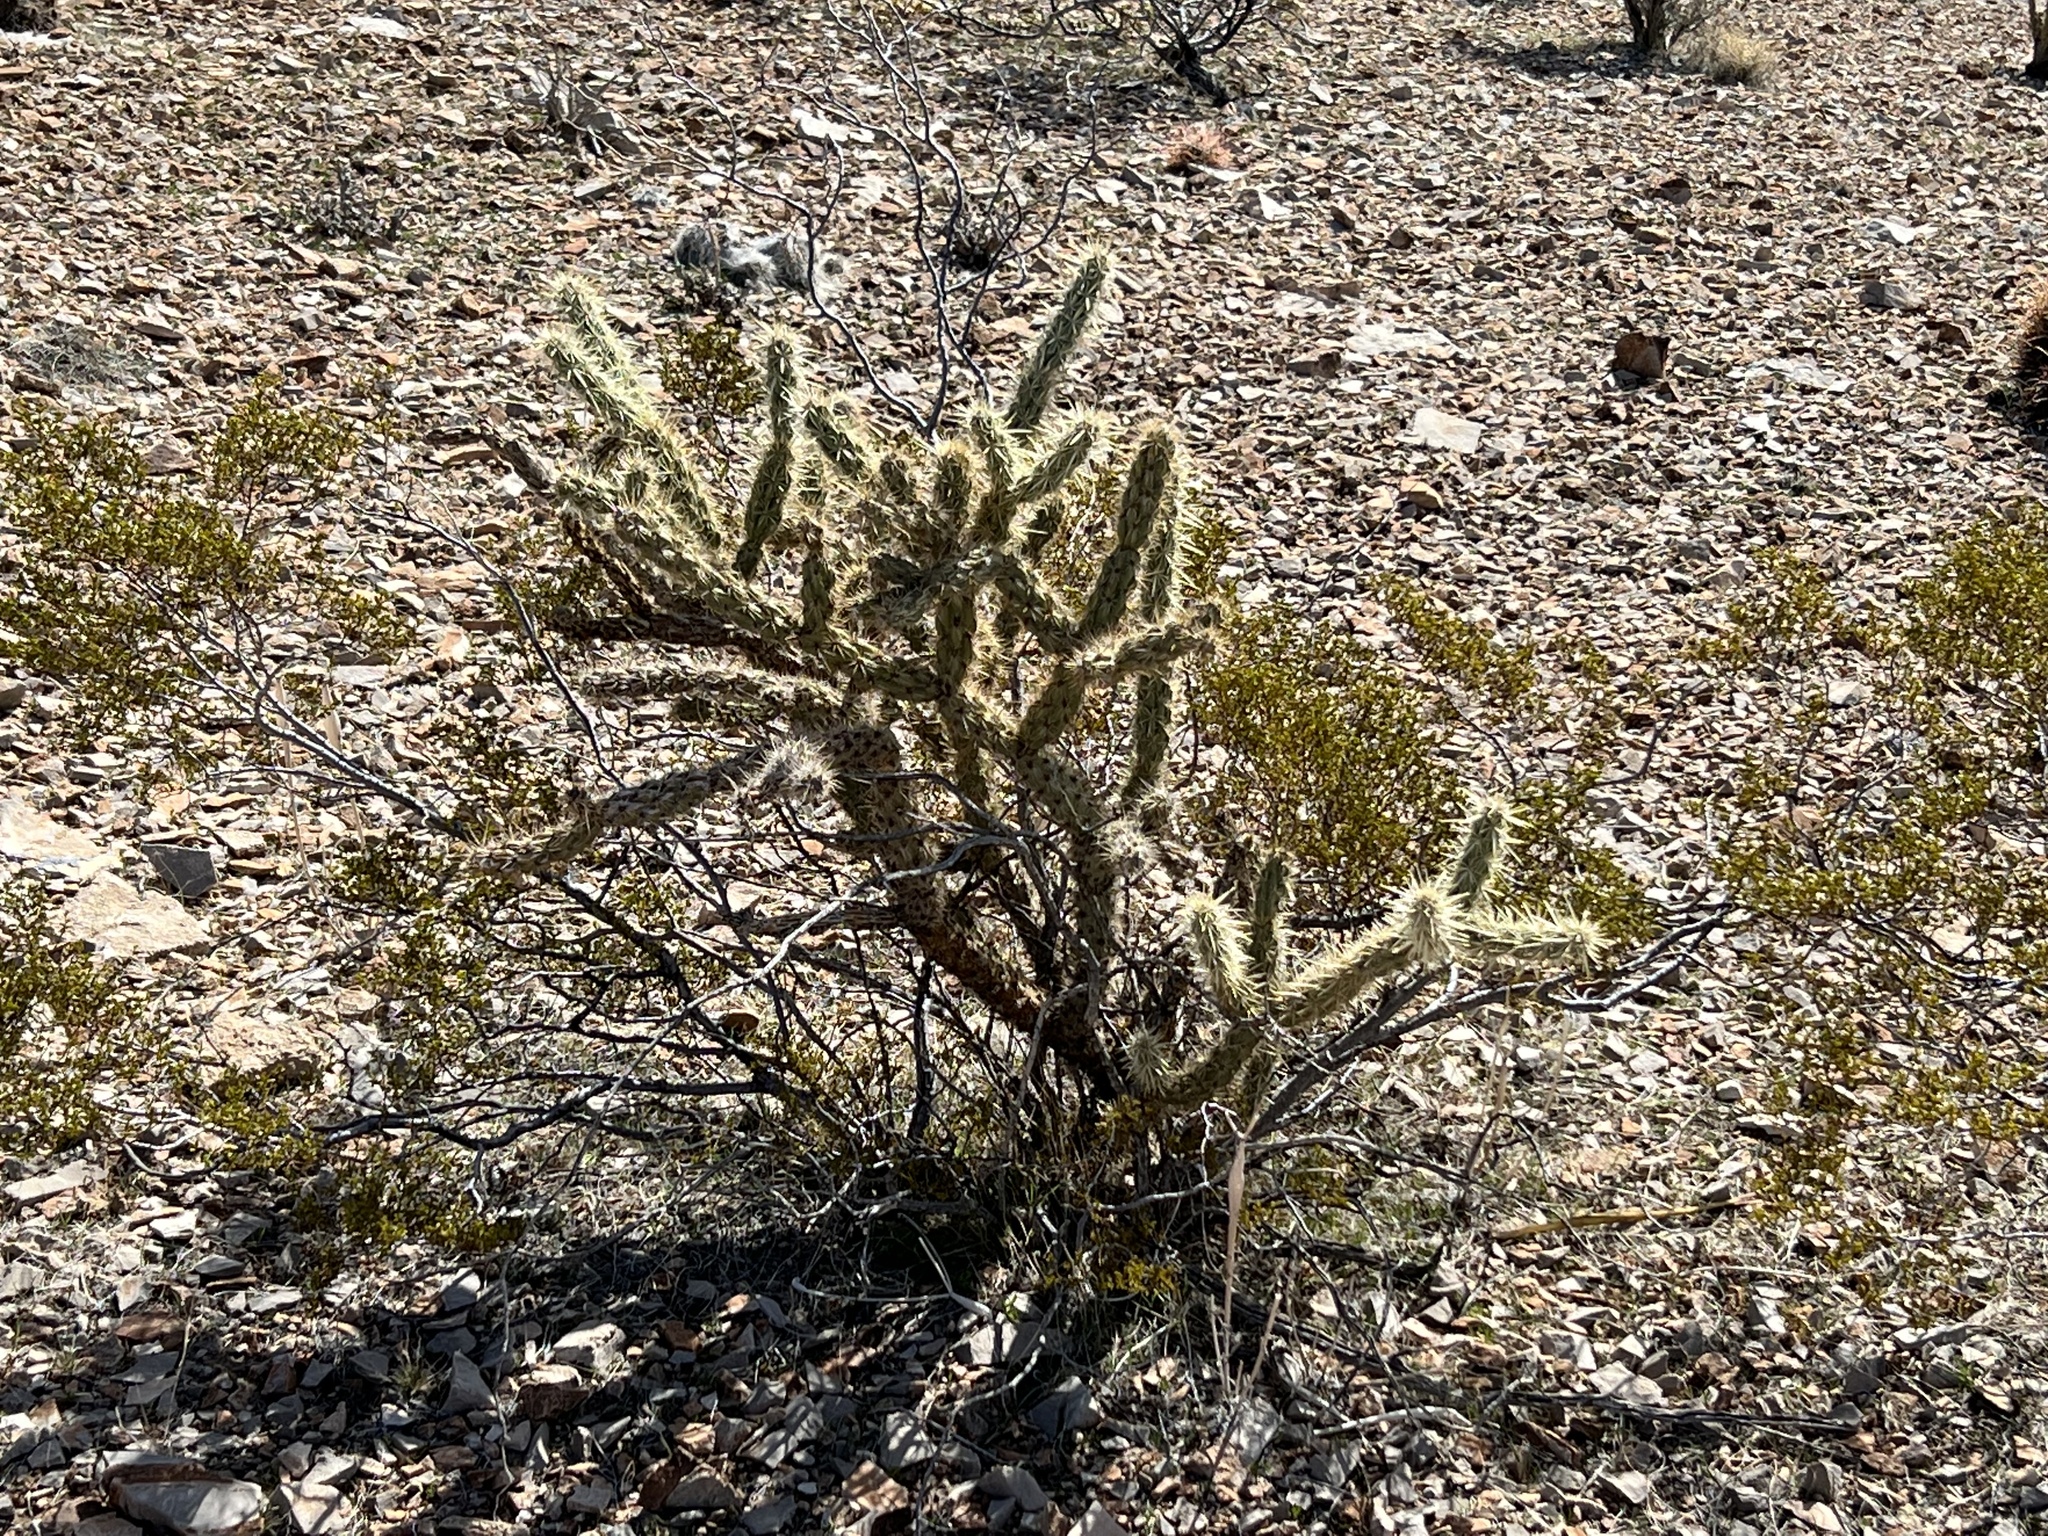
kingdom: Plantae
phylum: Tracheophyta
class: Magnoliopsida
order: Caryophyllales
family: Cactaceae
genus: Cylindropuntia
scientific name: Cylindropuntia acanthocarpa
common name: Buckhorn cholla
